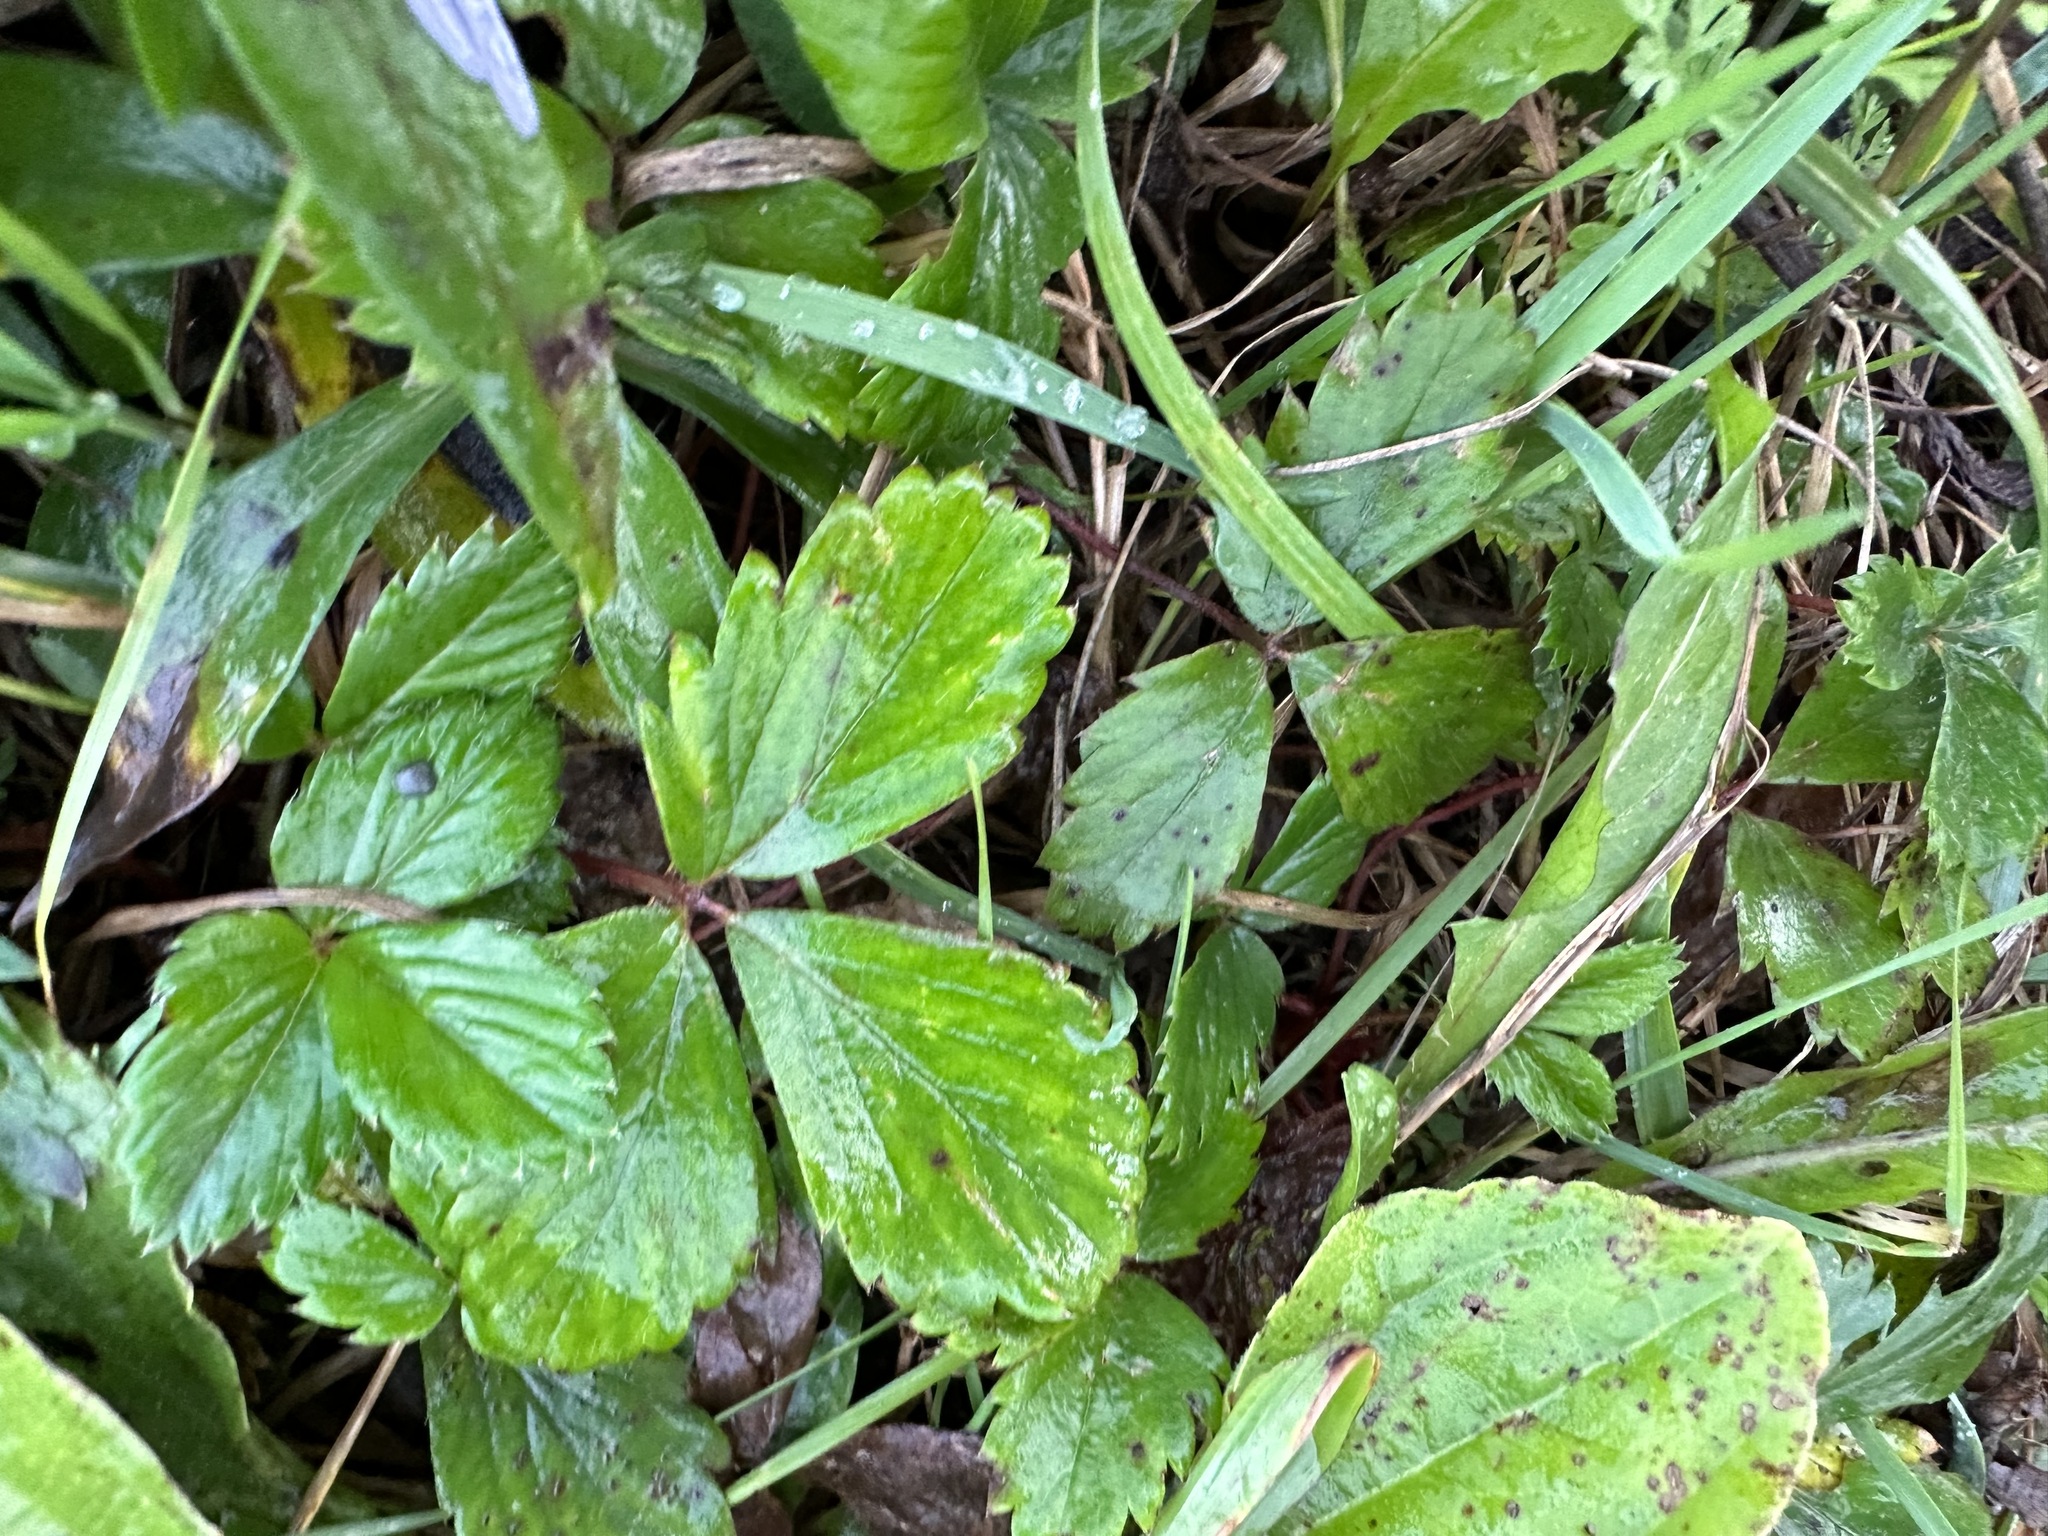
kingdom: Plantae
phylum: Tracheophyta
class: Magnoliopsida
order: Rosales
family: Rosaceae
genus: Fragaria
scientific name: Fragaria virginiana
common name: Thickleaved wild strawberry
